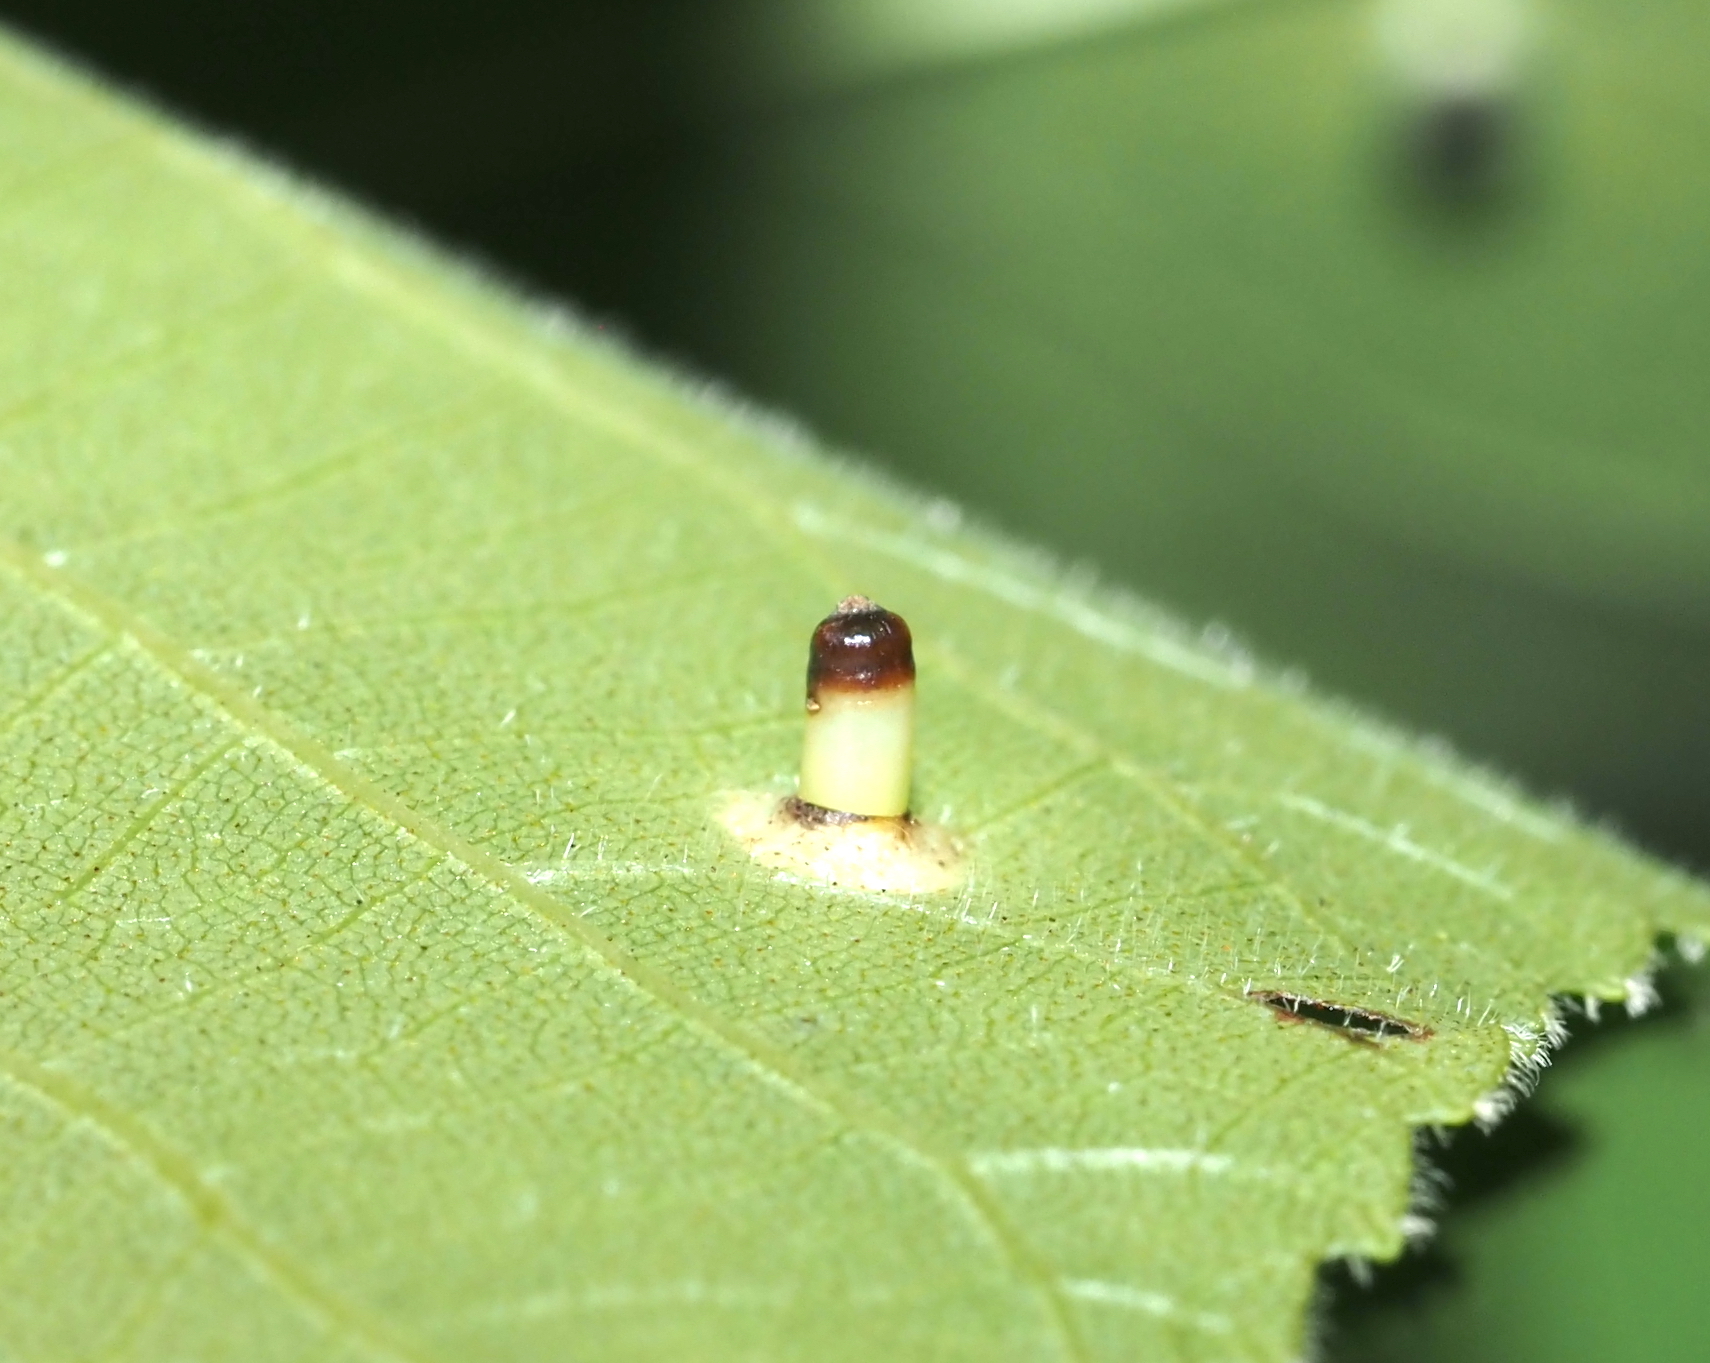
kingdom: Animalia
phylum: Arthropoda
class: Insecta
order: Diptera
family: Cecidomyiidae
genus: Caryomyia
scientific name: Caryomyia tubicola
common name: Hickory bullet gall midge
